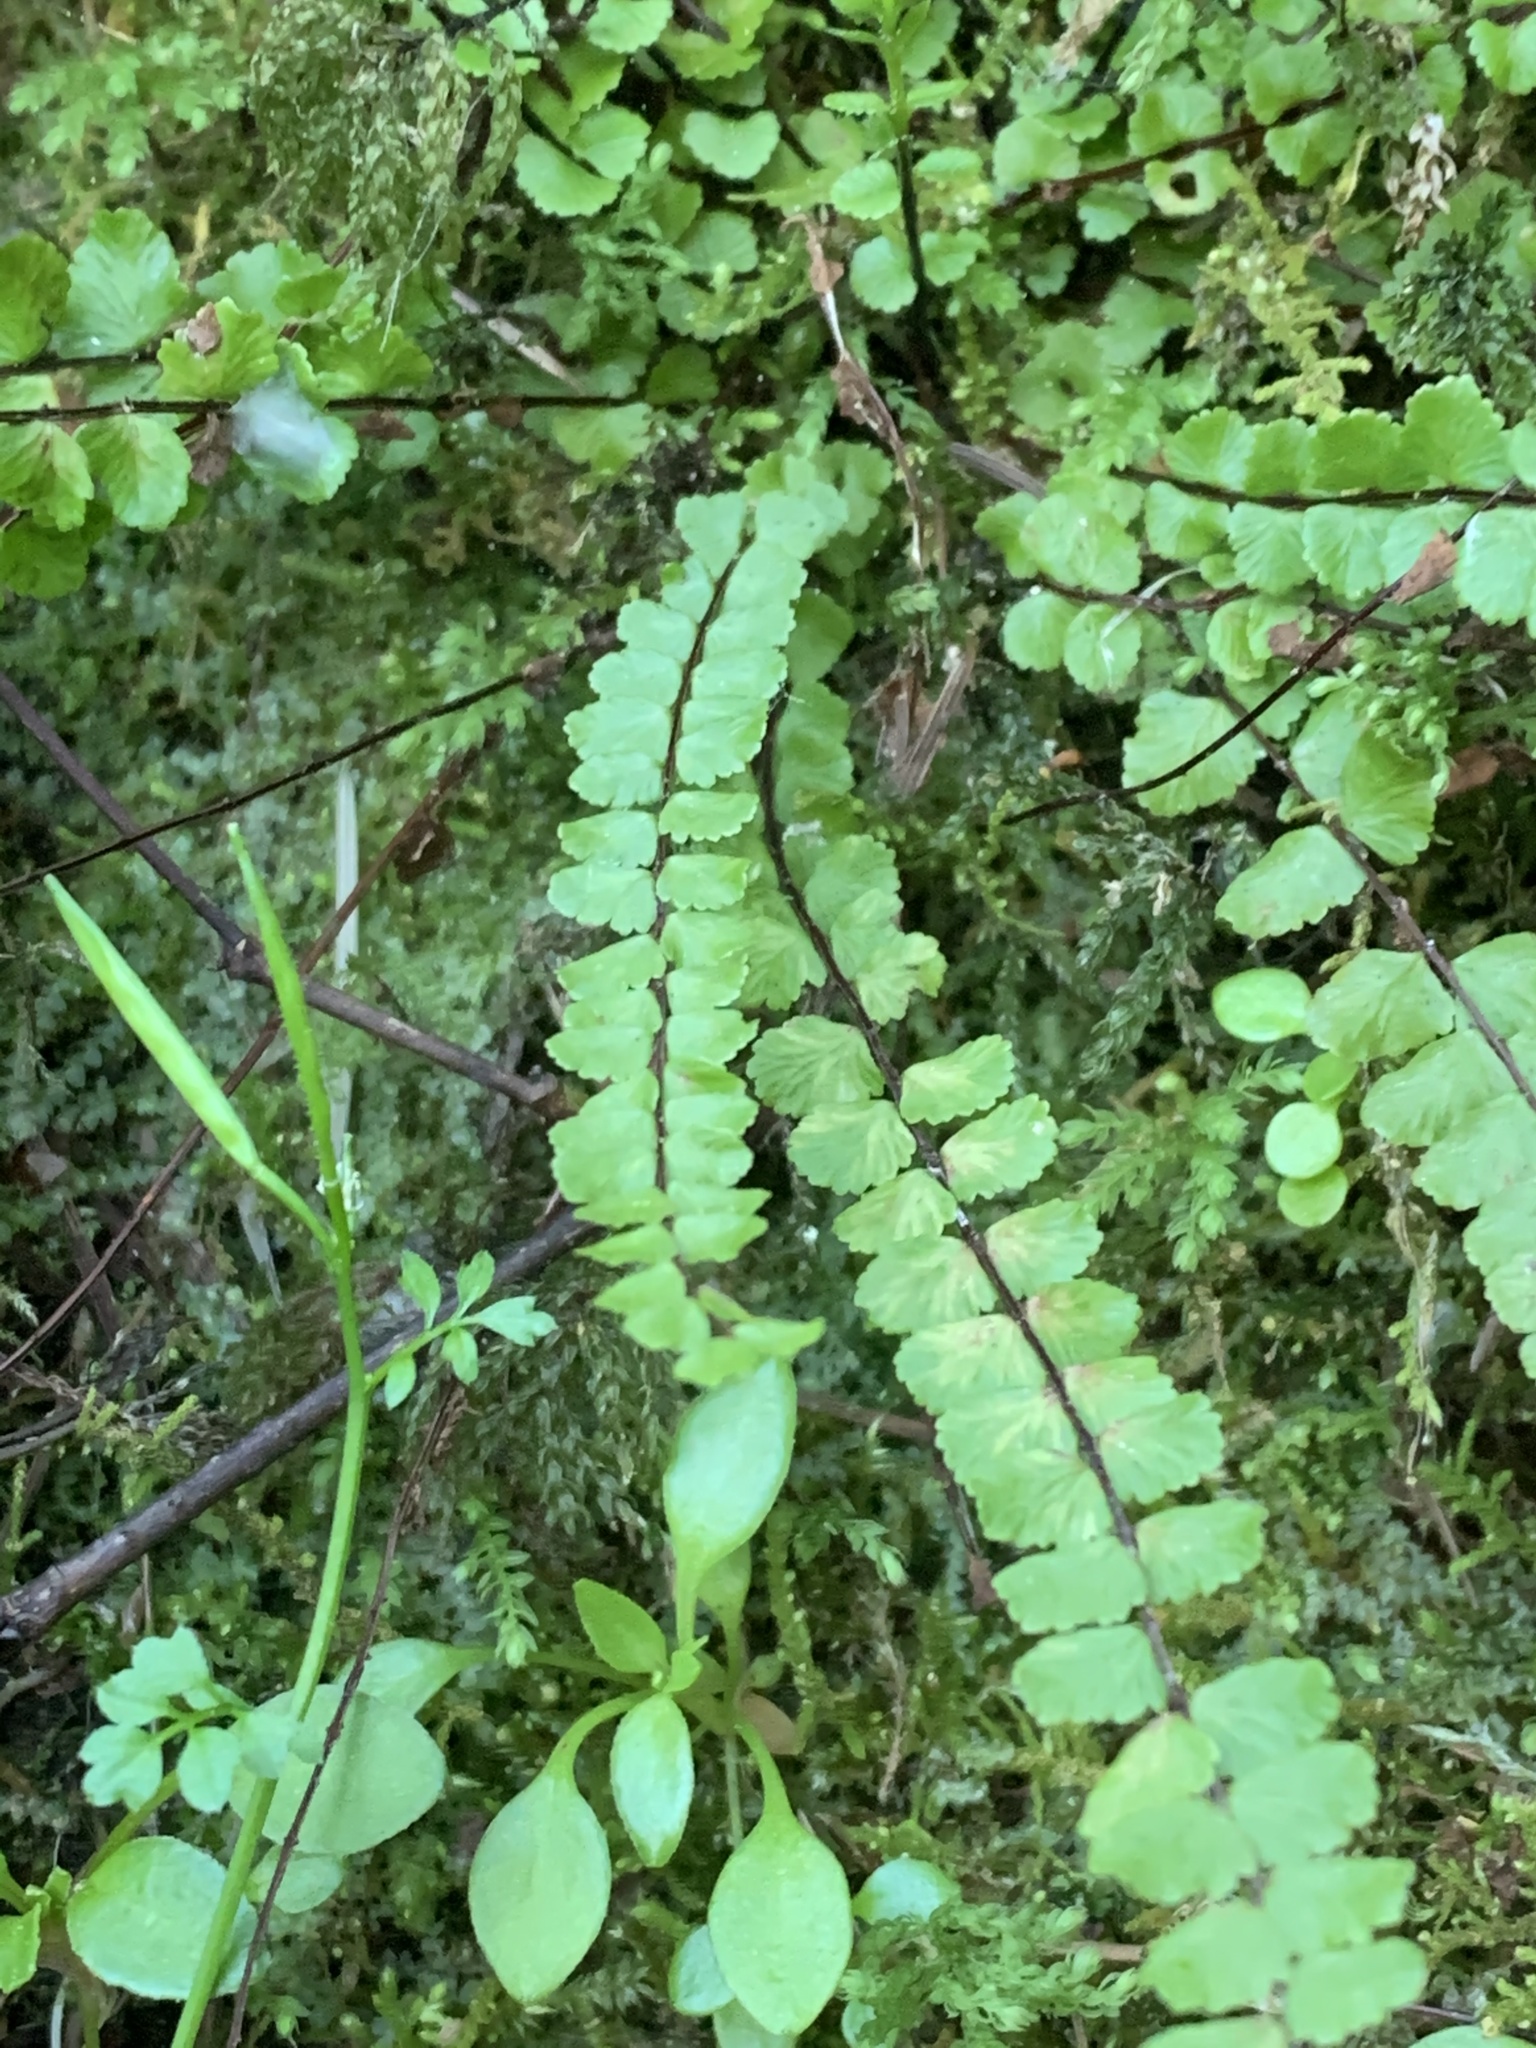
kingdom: Plantae
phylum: Tracheophyta
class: Polypodiopsida
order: Polypodiales
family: Aspleniaceae
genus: Asplenium
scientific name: Asplenium trichomanes
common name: Maidenhair spleenwort
